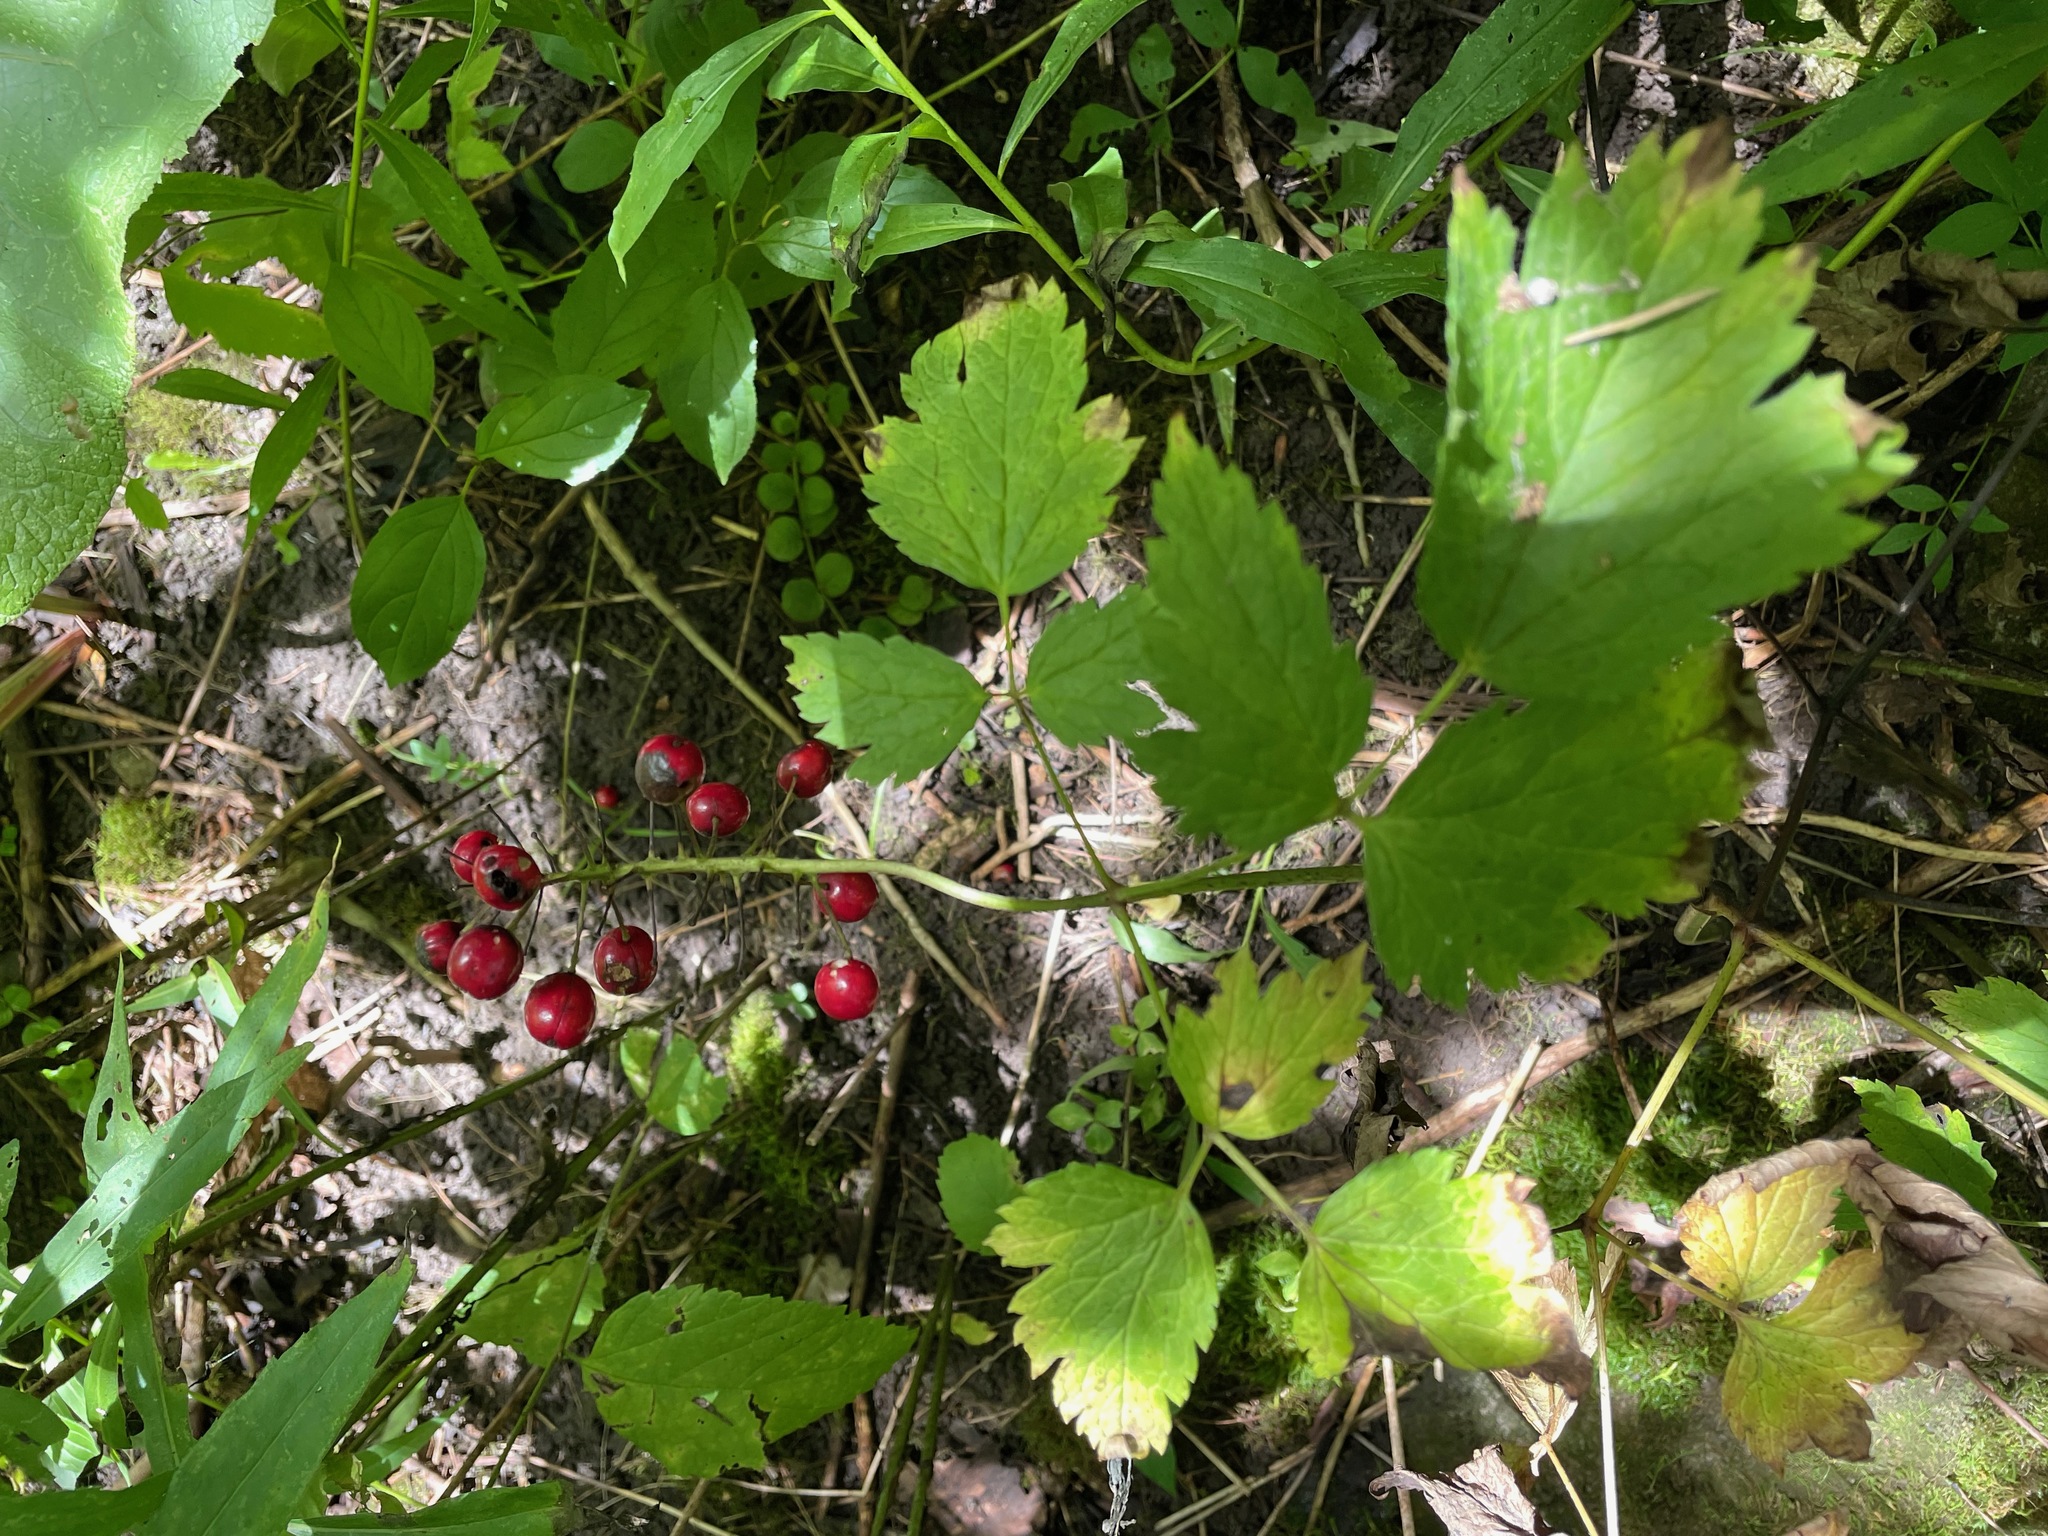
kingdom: Plantae
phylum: Tracheophyta
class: Magnoliopsida
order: Ranunculales
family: Ranunculaceae
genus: Actaea
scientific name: Actaea rubra
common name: Red baneberry
